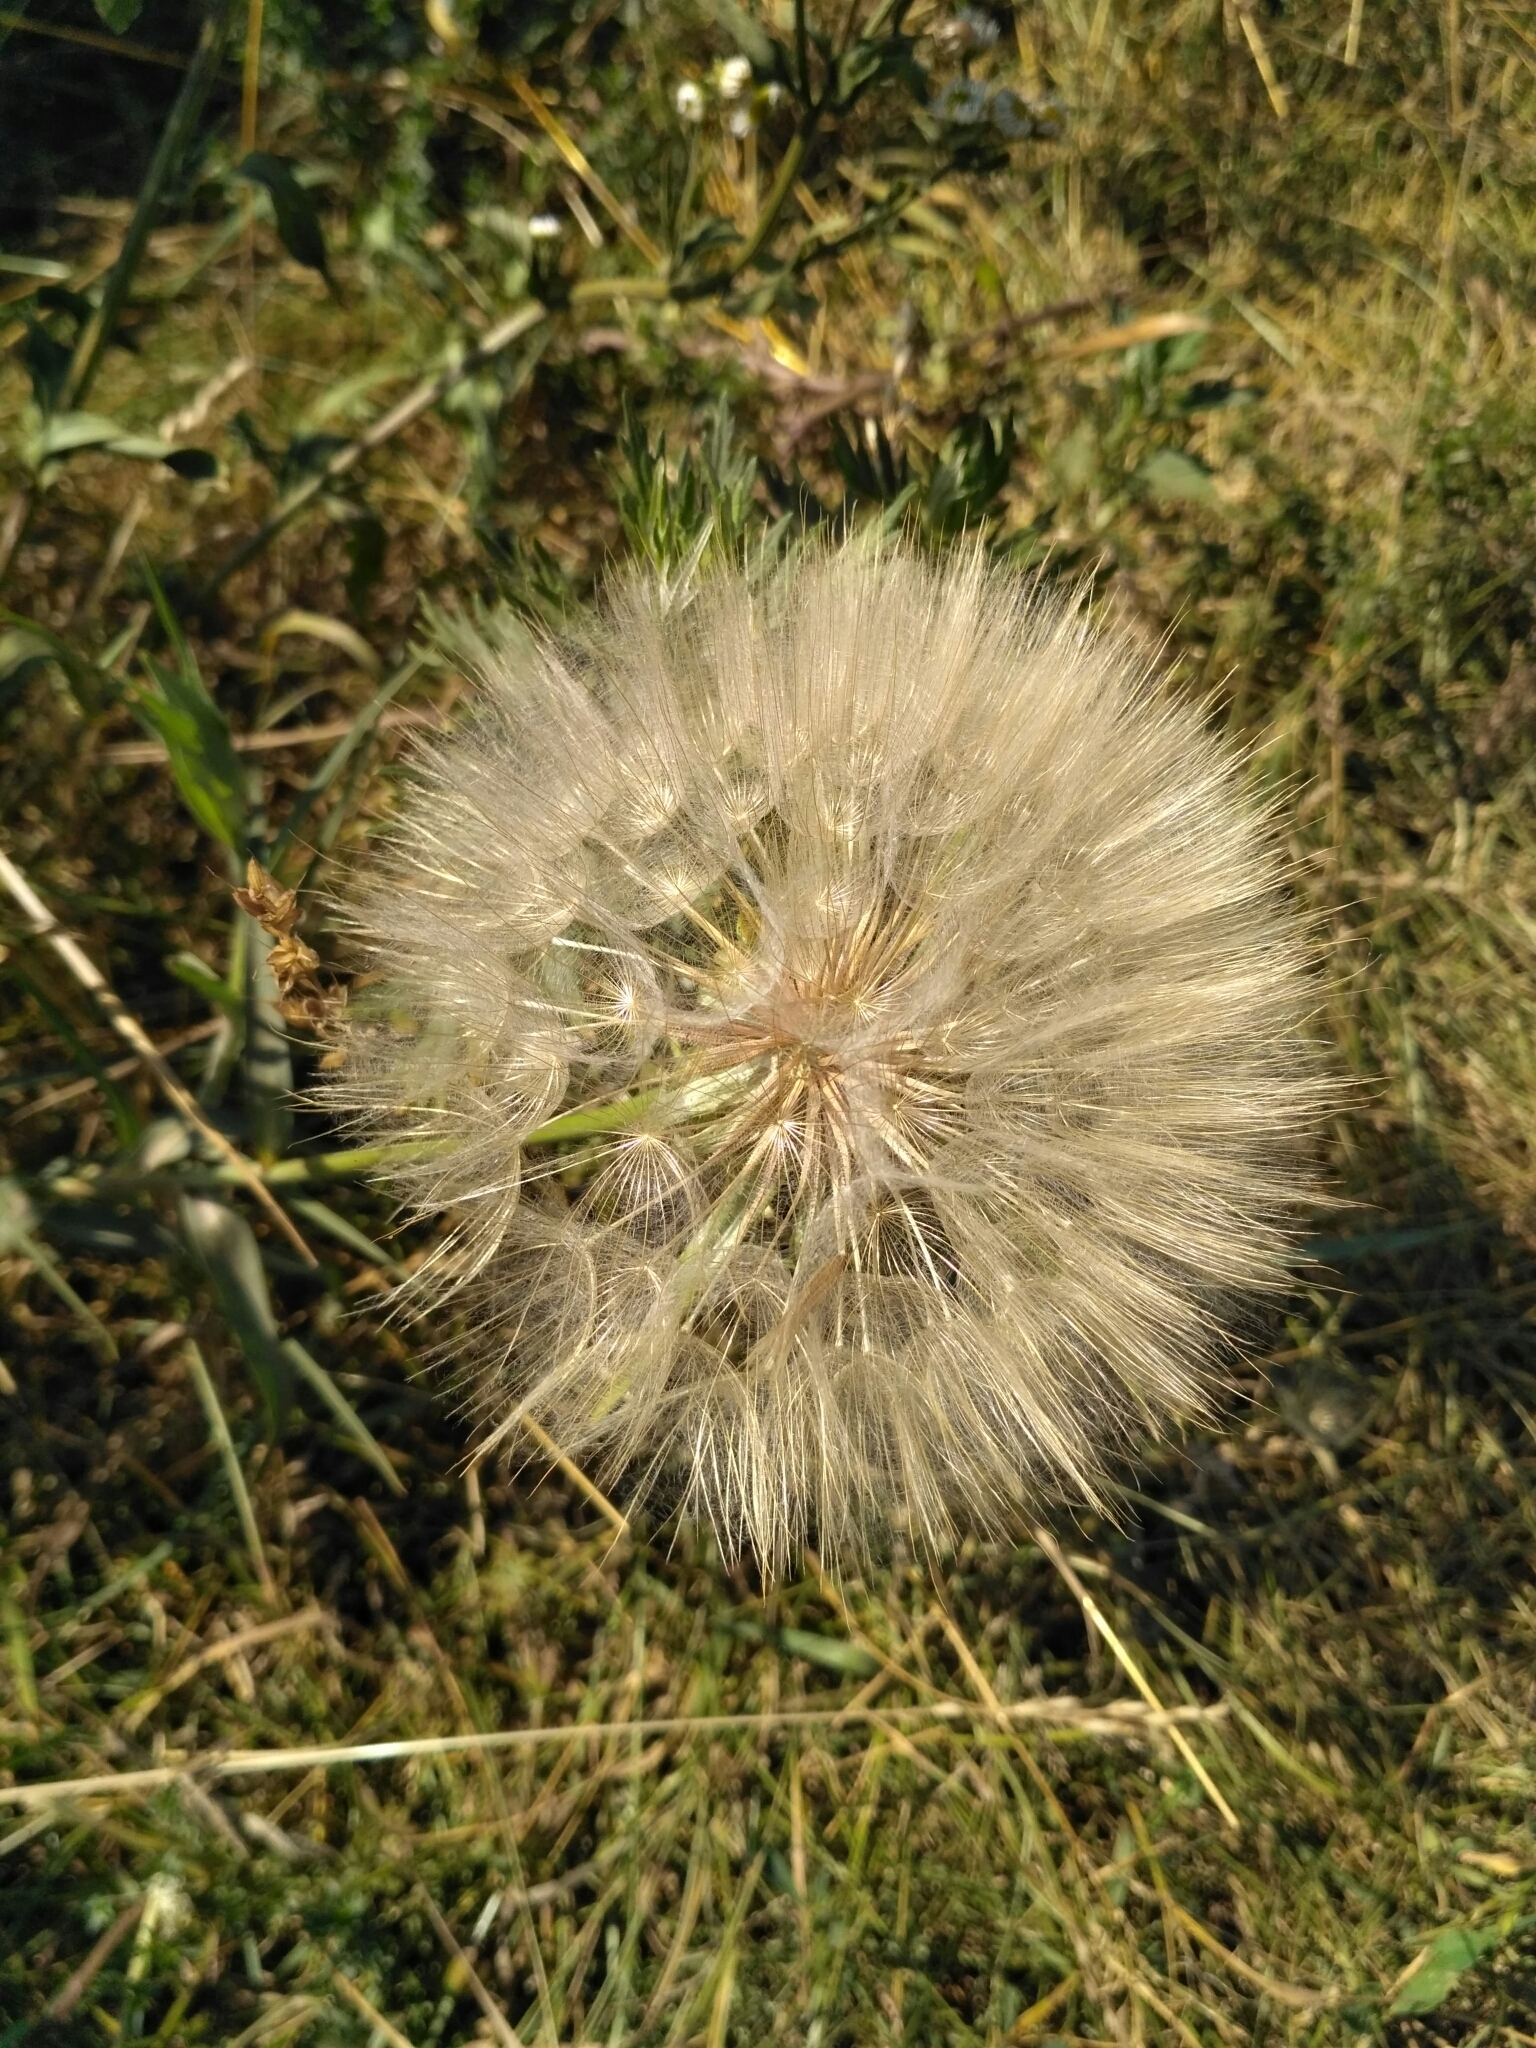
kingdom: Plantae
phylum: Tracheophyta
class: Magnoliopsida
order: Asterales
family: Asteraceae
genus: Tragopogon
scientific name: Tragopogon dubius
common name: Yellow salsify
